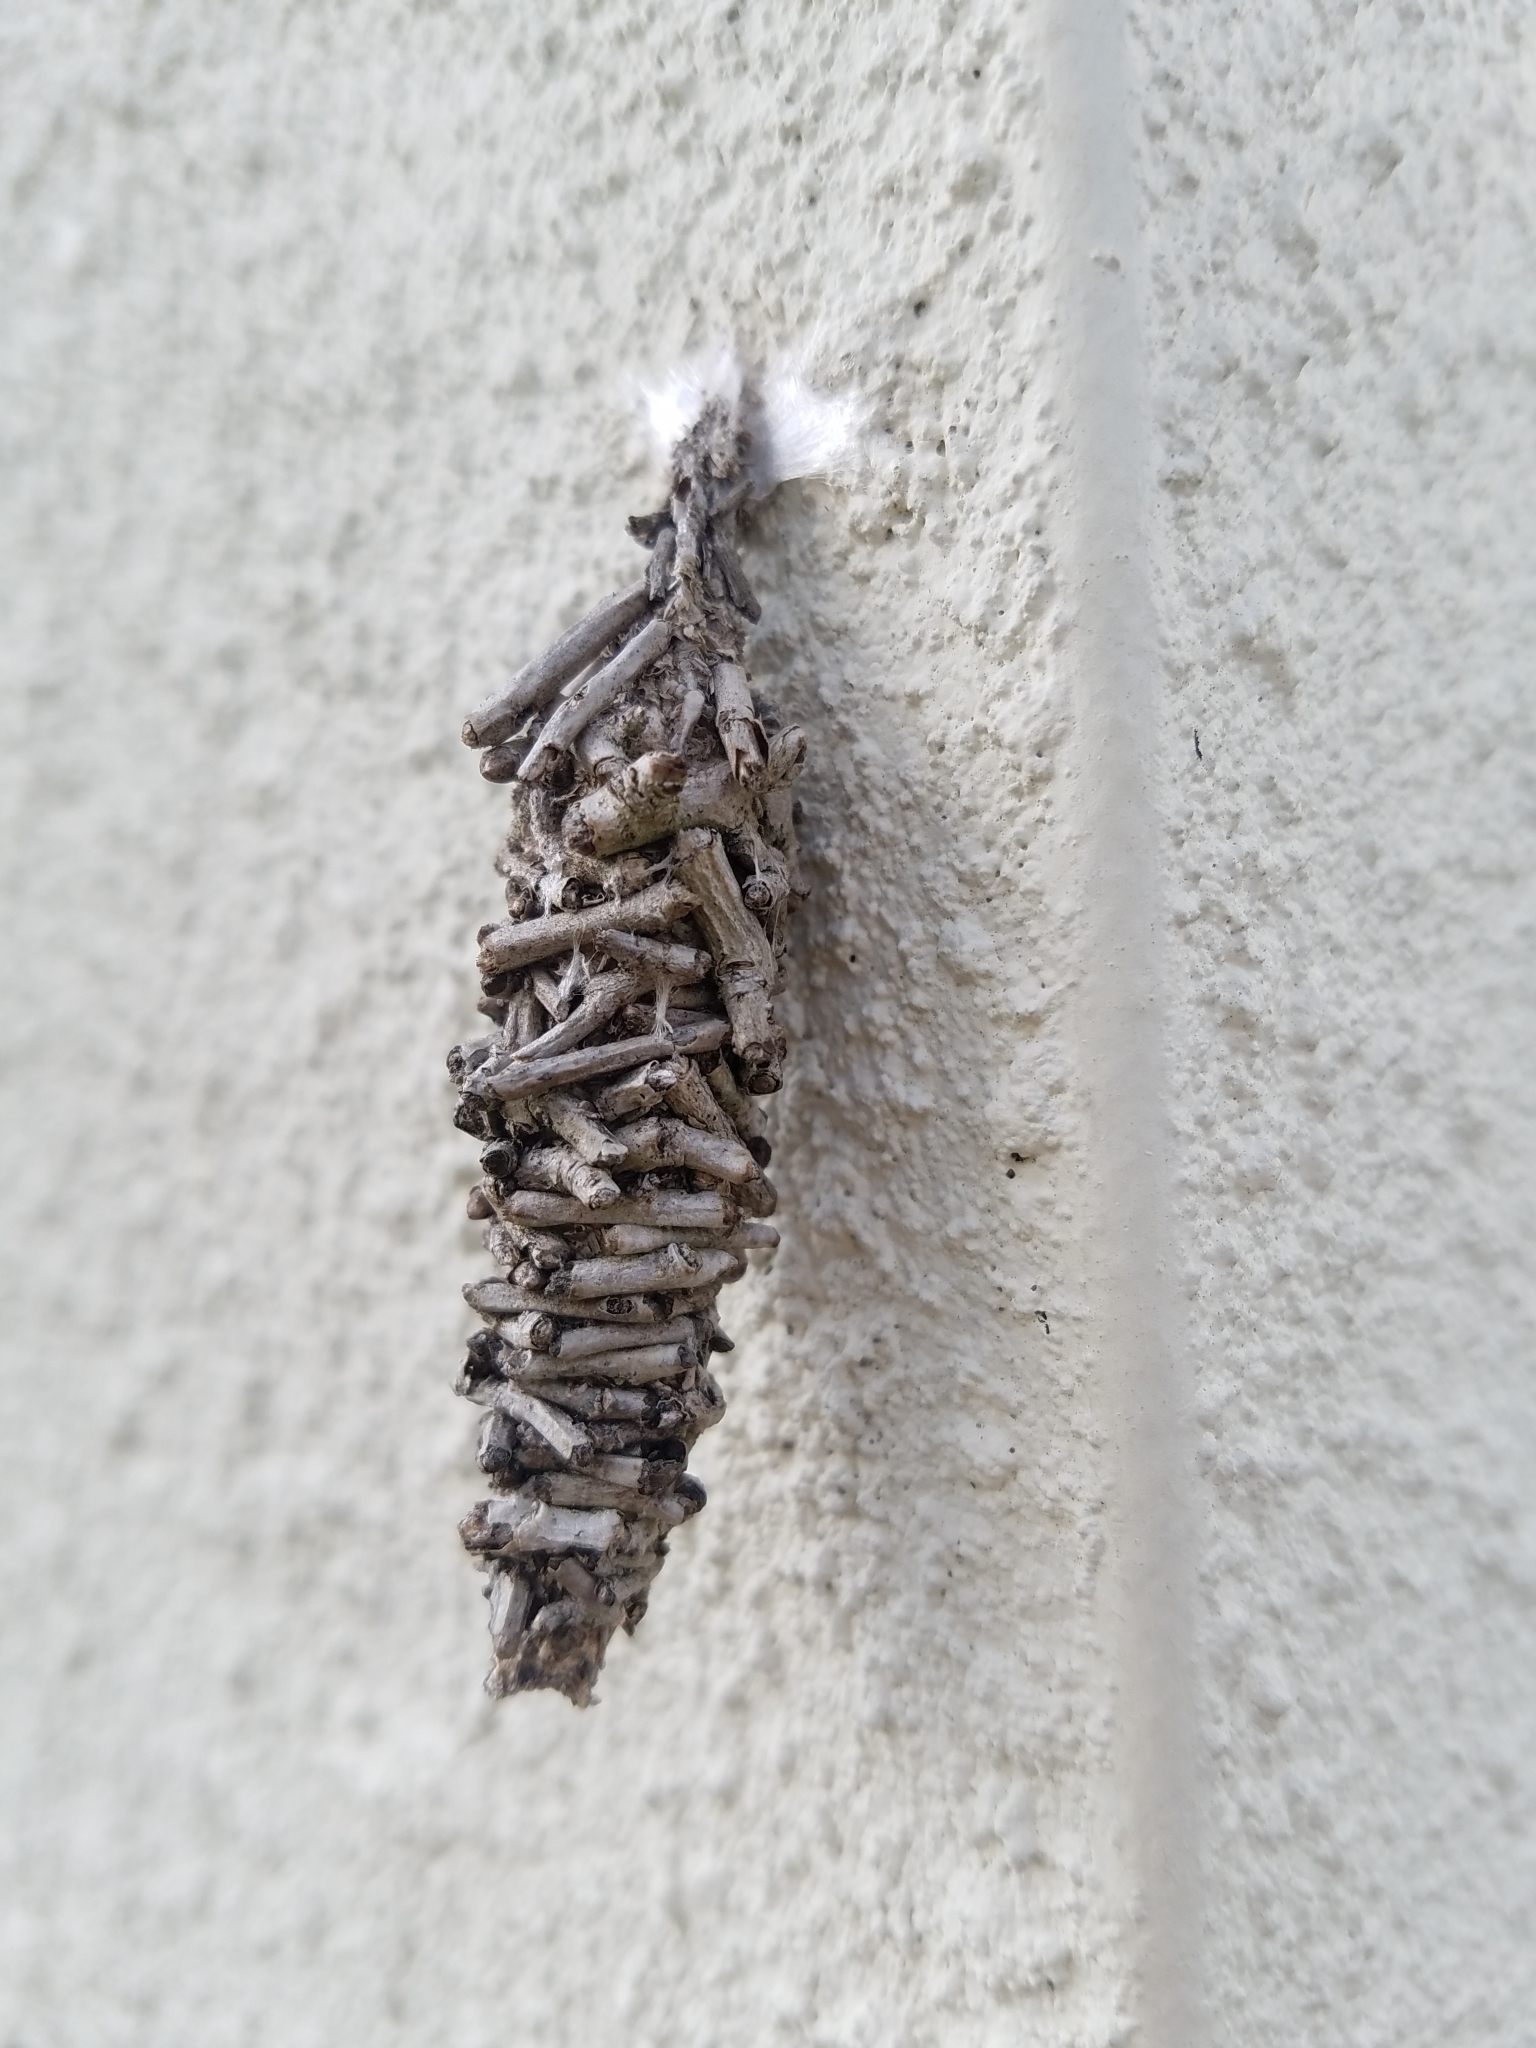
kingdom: Animalia
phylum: Arthropoda
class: Insecta
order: Lepidoptera
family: Psychidae
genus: Oiketicus
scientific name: Oiketicus
